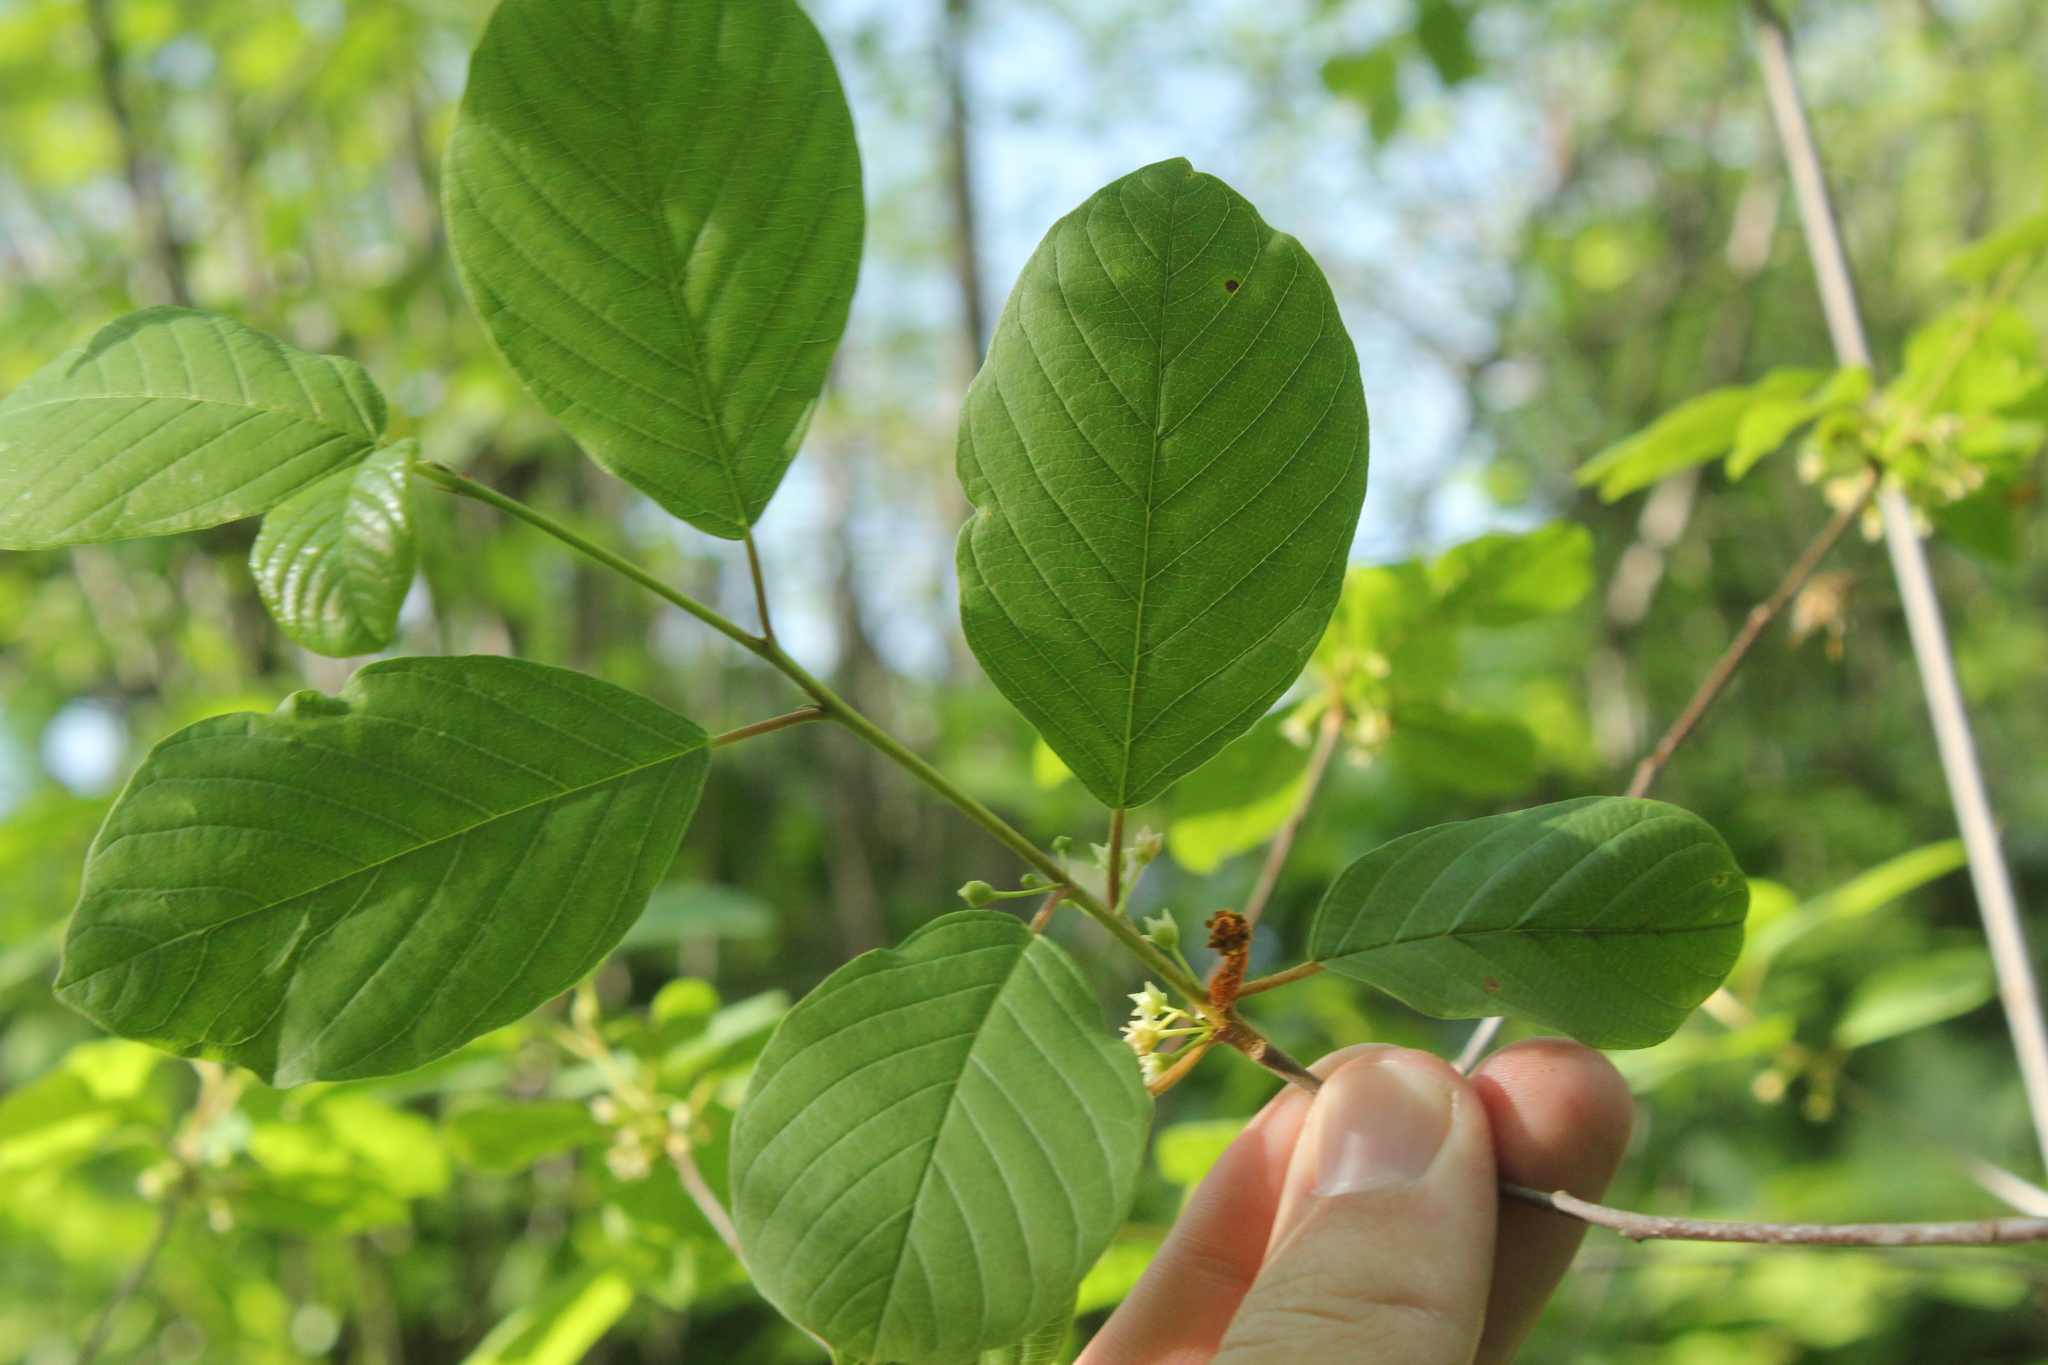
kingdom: Plantae
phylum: Tracheophyta
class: Magnoliopsida
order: Rosales
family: Rhamnaceae
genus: Frangula
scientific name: Frangula alnus
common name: Alder buckthorn
